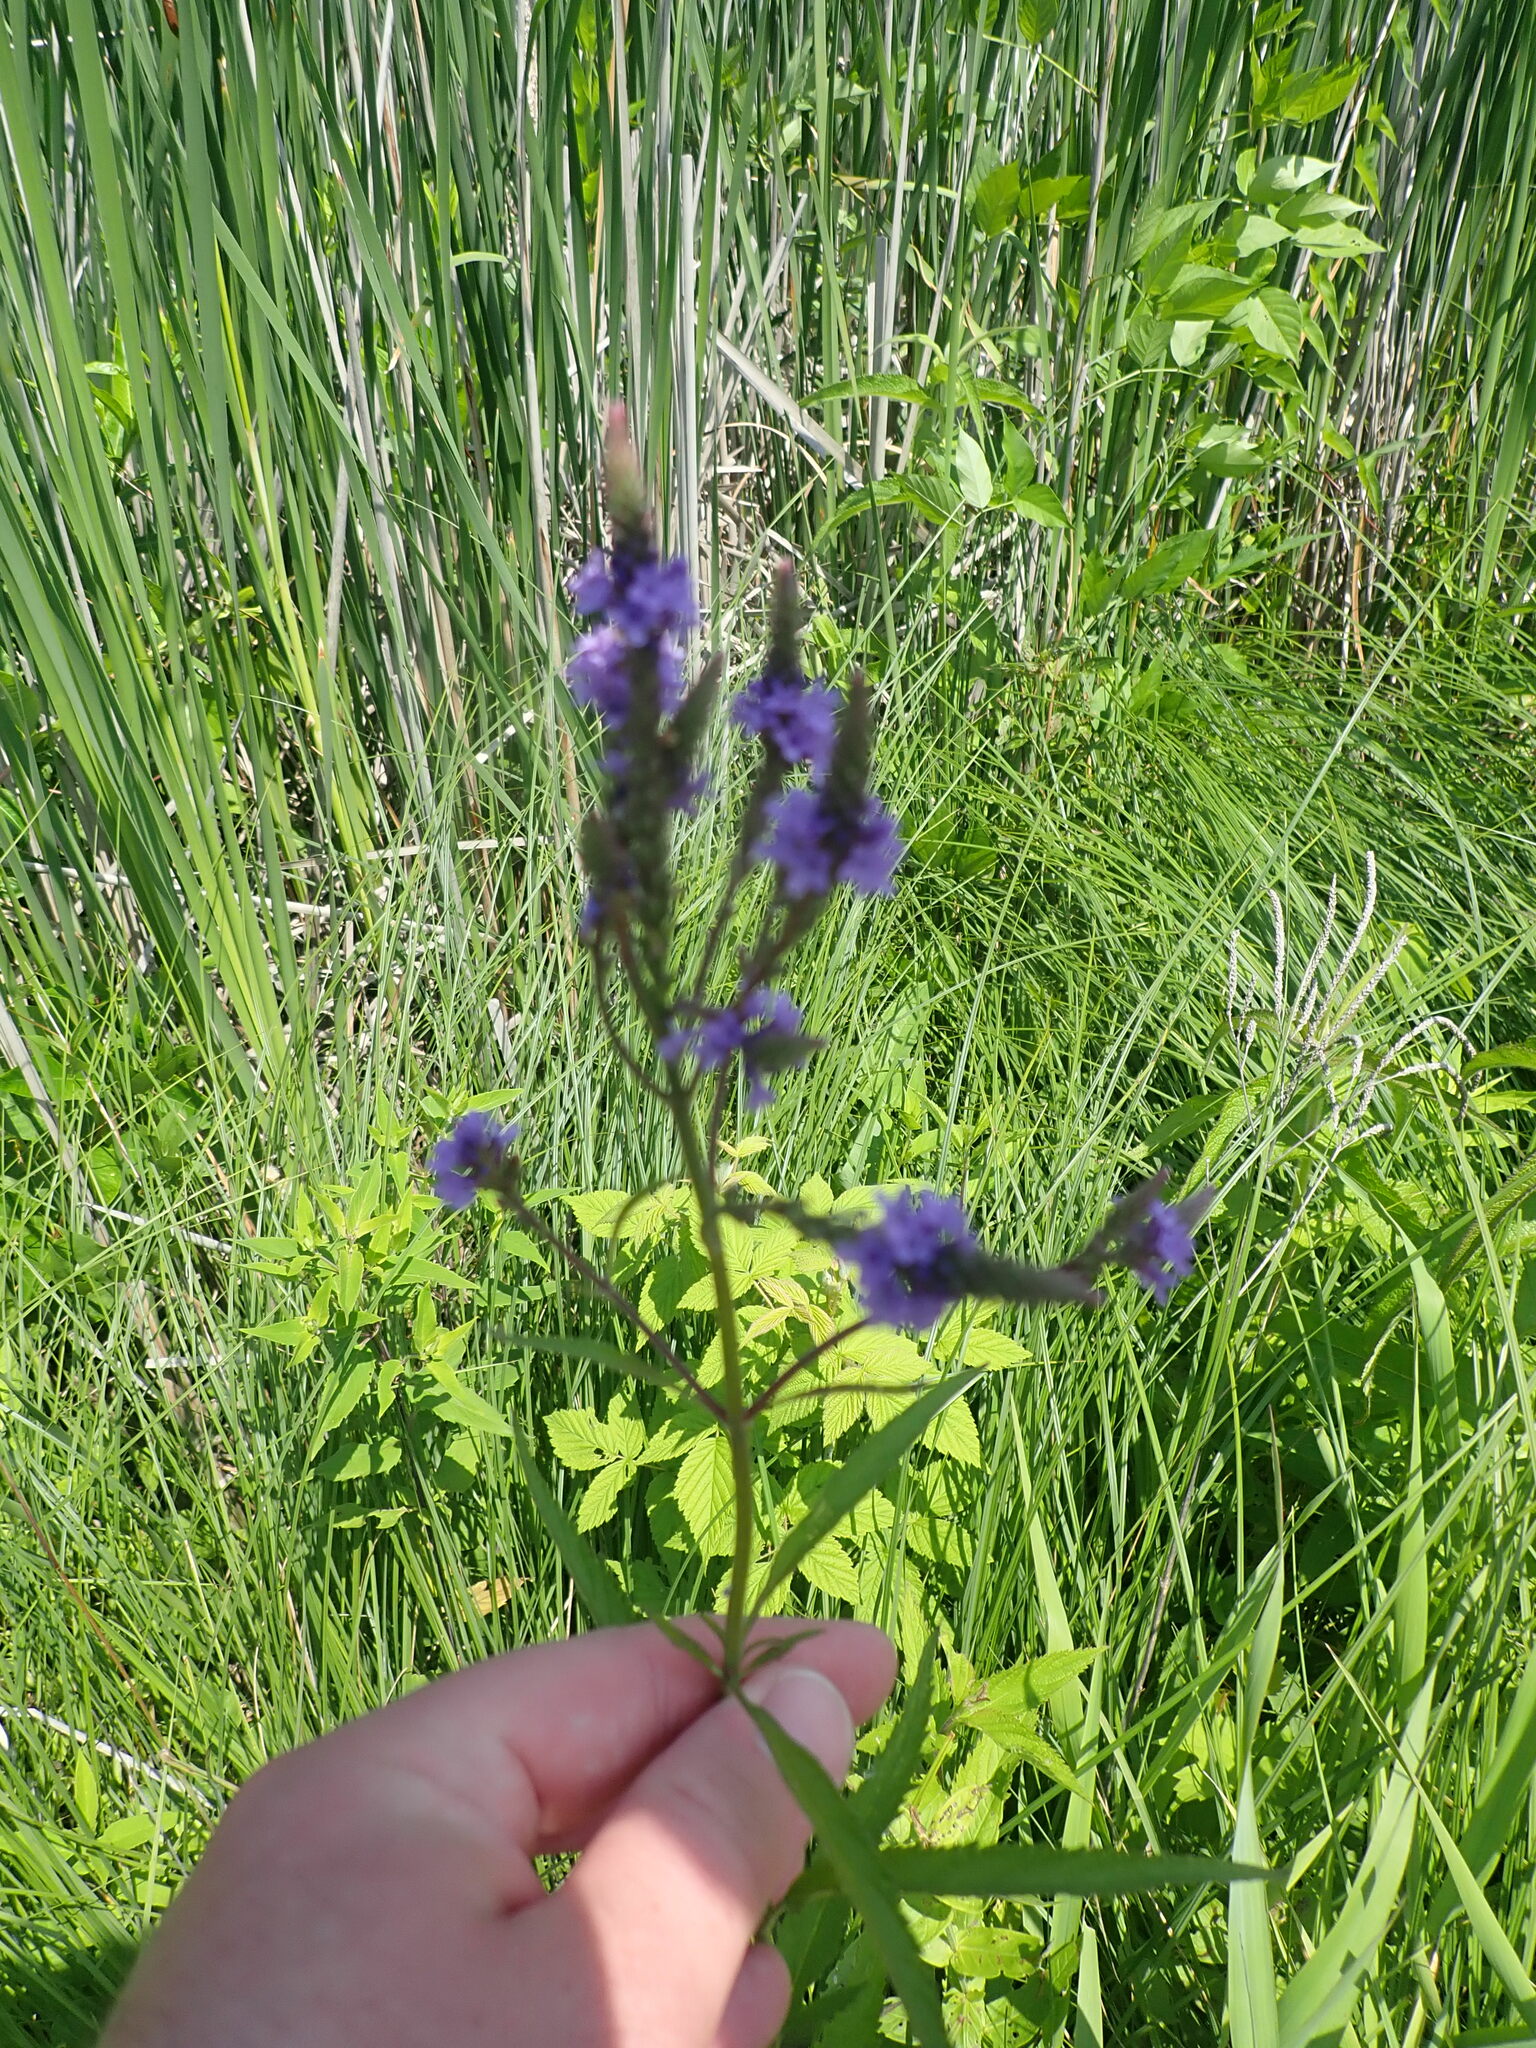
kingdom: Plantae
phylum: Tracheophyta
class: Magnoliopsida
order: Lamiales
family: Verbenaceae
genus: Verbena
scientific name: Verbena hastata
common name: American blue vervain
